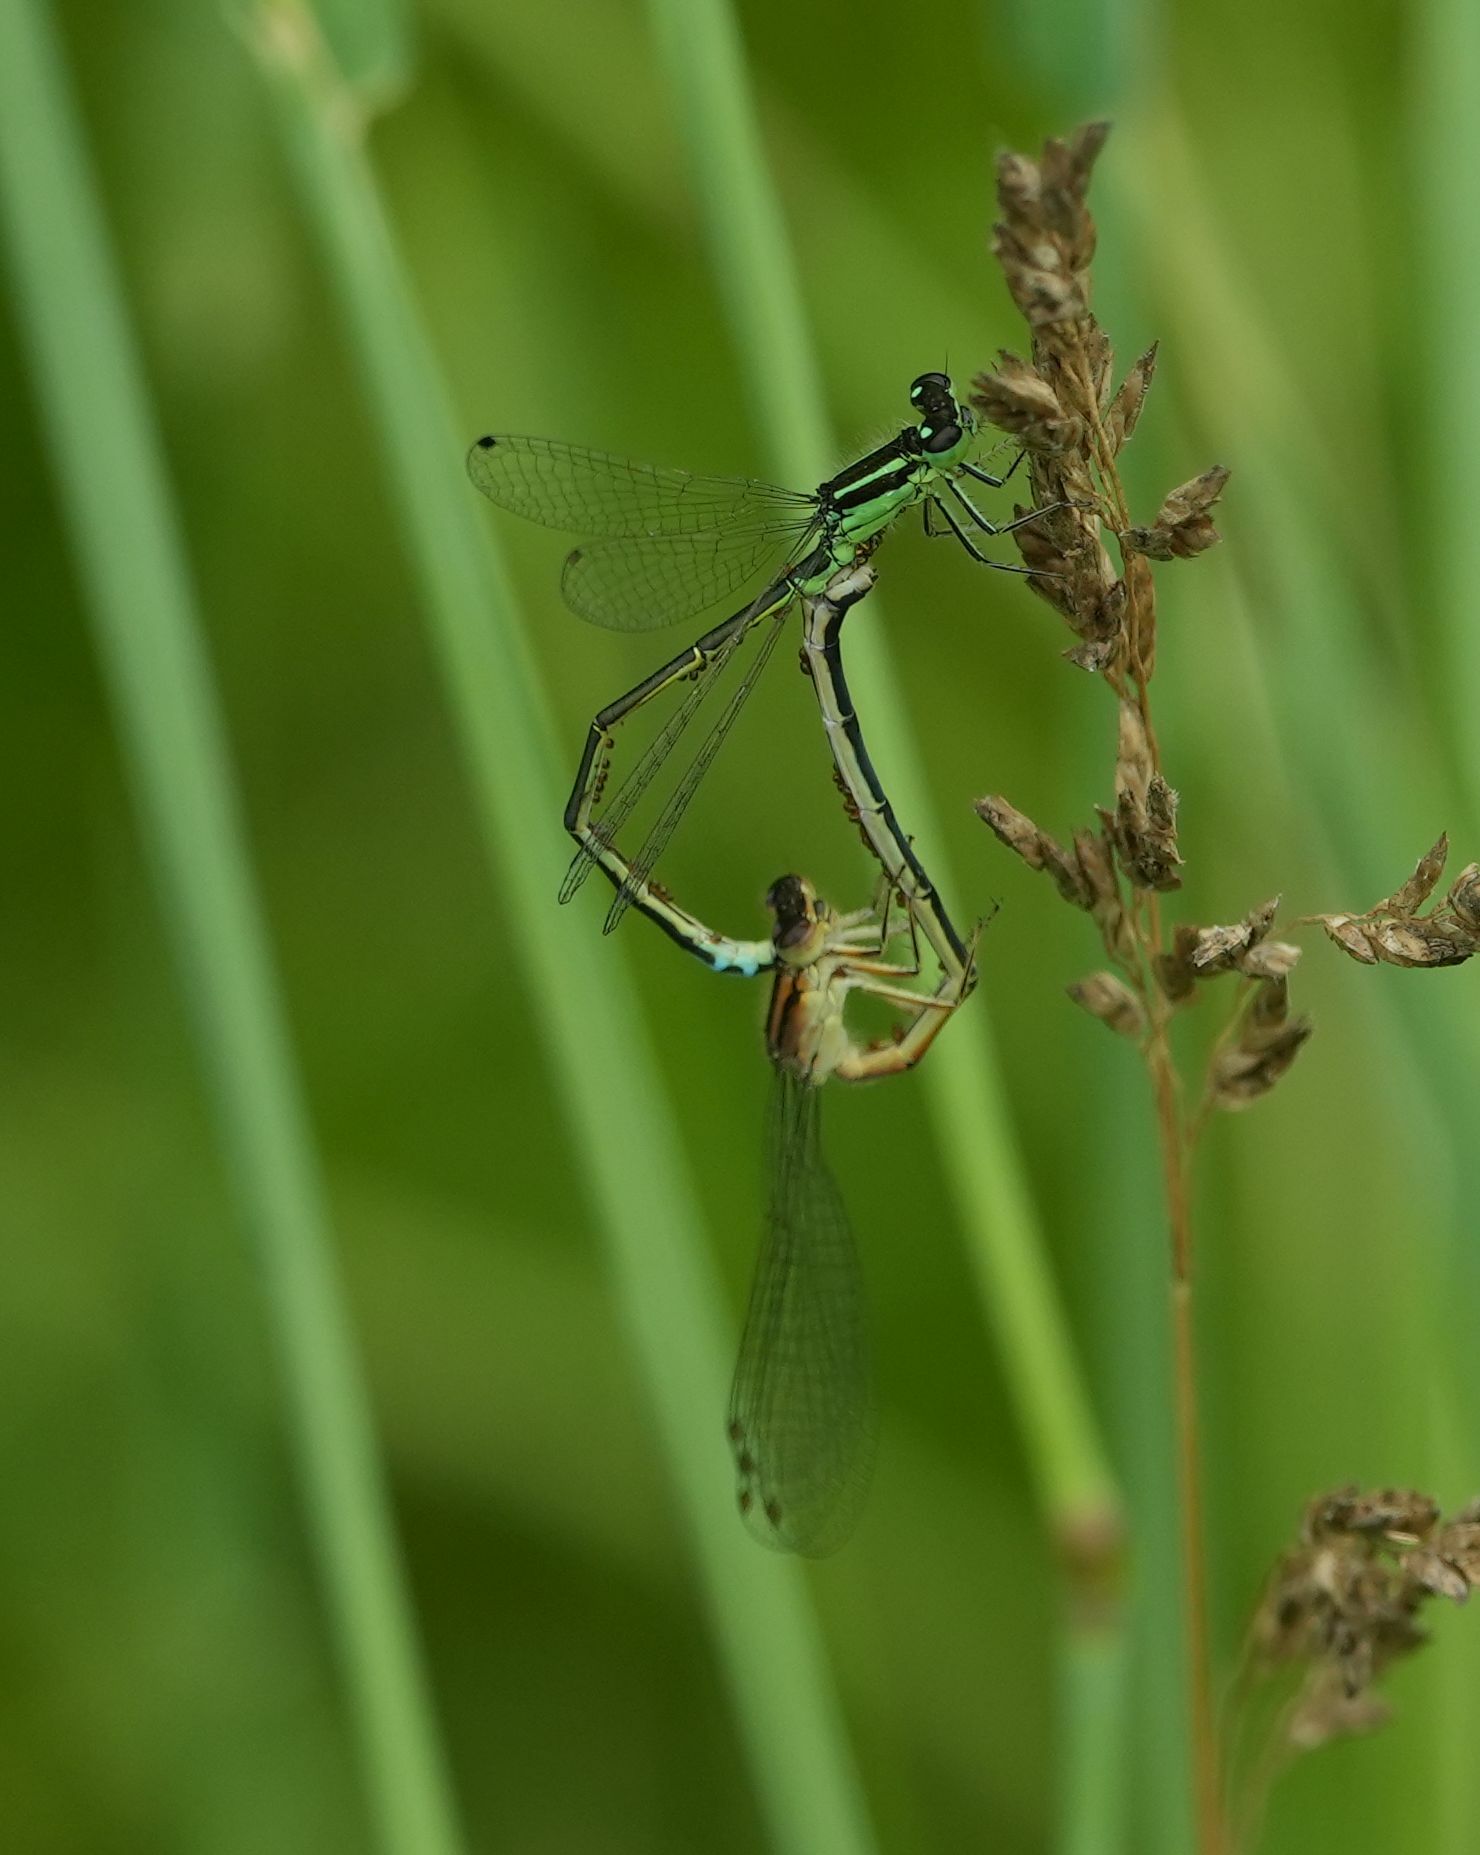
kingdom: Animalia
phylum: Arthropoda
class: Insecta
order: Odonata
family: Coenagrionidae
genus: Ischnura
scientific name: Ischnura verticalis
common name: Eastern forktail
